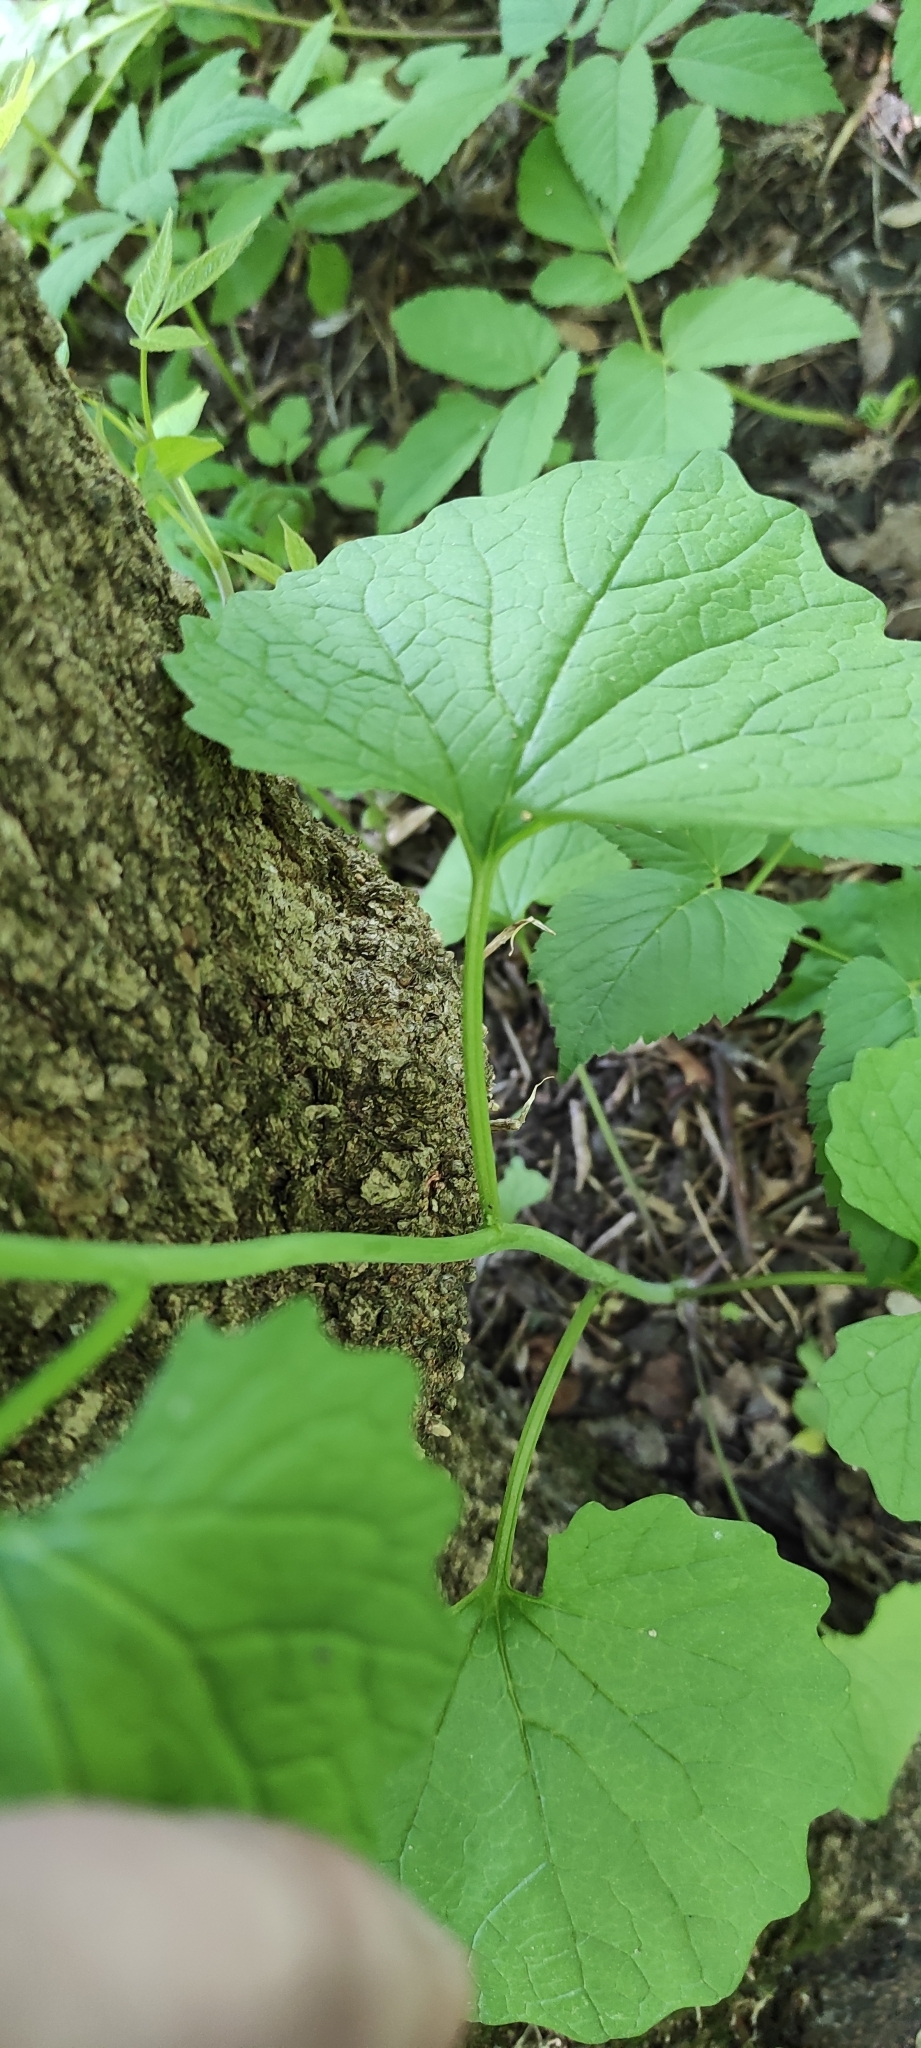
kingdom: Plantae
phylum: Tracheophyta
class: Magnoliopsida
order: Brassicales
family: Brassicaceae
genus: Alliaria
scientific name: Alliaria petiolata
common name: Garlic mustard
